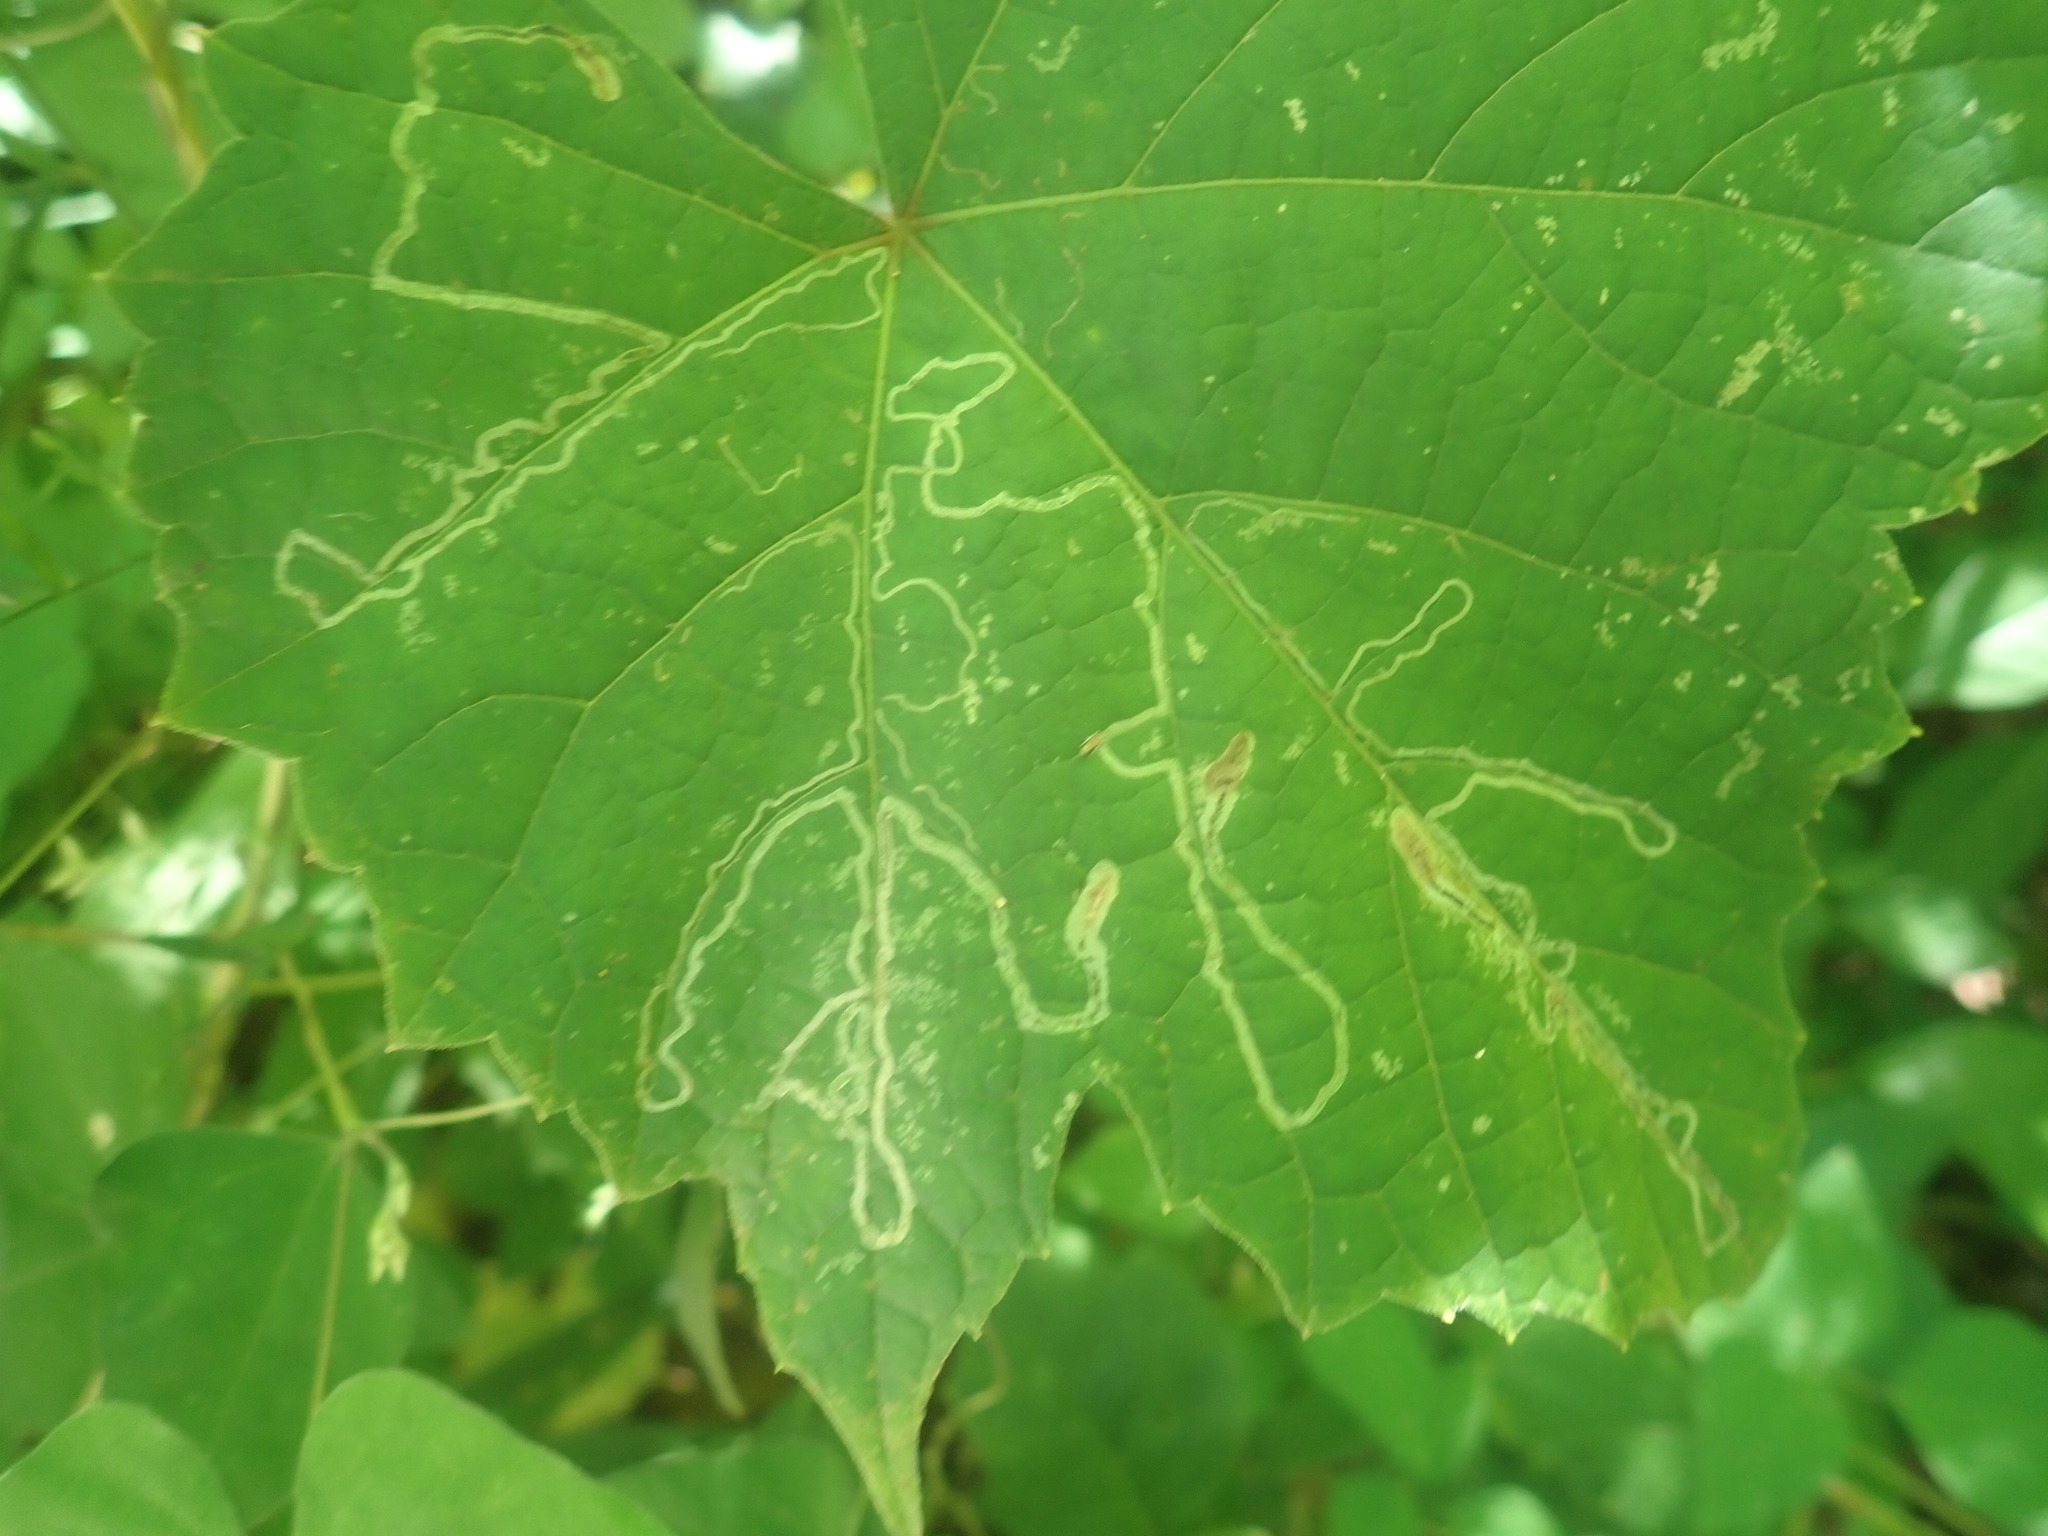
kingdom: Animalia
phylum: Arthropoda
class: Insecta
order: Lepidoptera
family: Gracillariidae
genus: Phyllocnistis
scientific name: Phyllocnistis vitifoliella
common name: Grape leaf-miner moth
